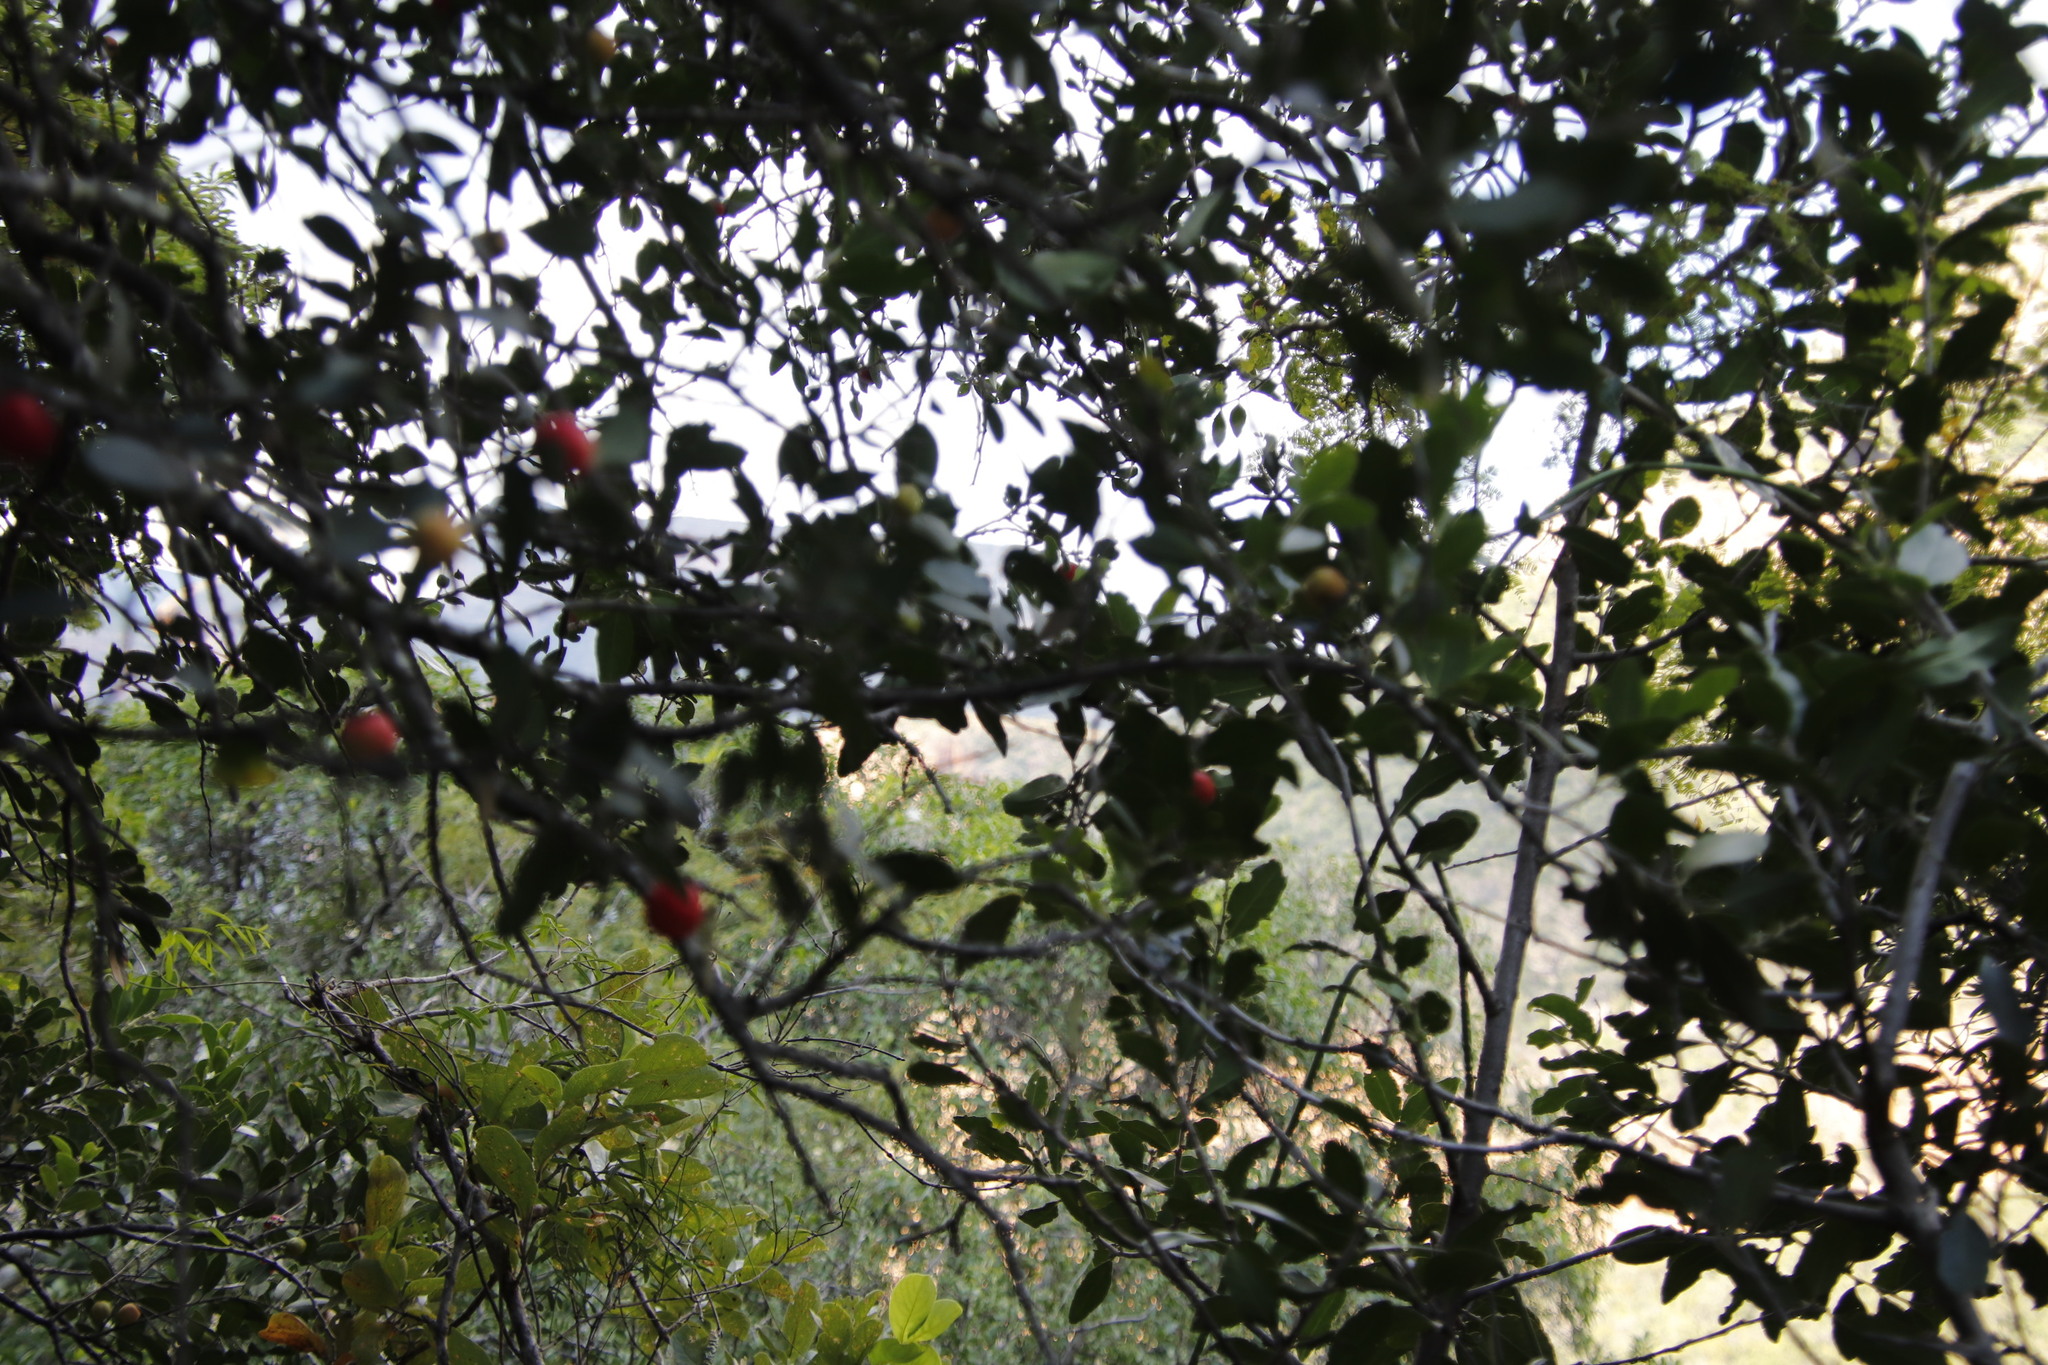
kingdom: Plantae
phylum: Tracheophyta
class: Magnoliopsida
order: Celastrales
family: Celastraceae
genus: Mystroxylon
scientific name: Mystroxylon aethiopicum
